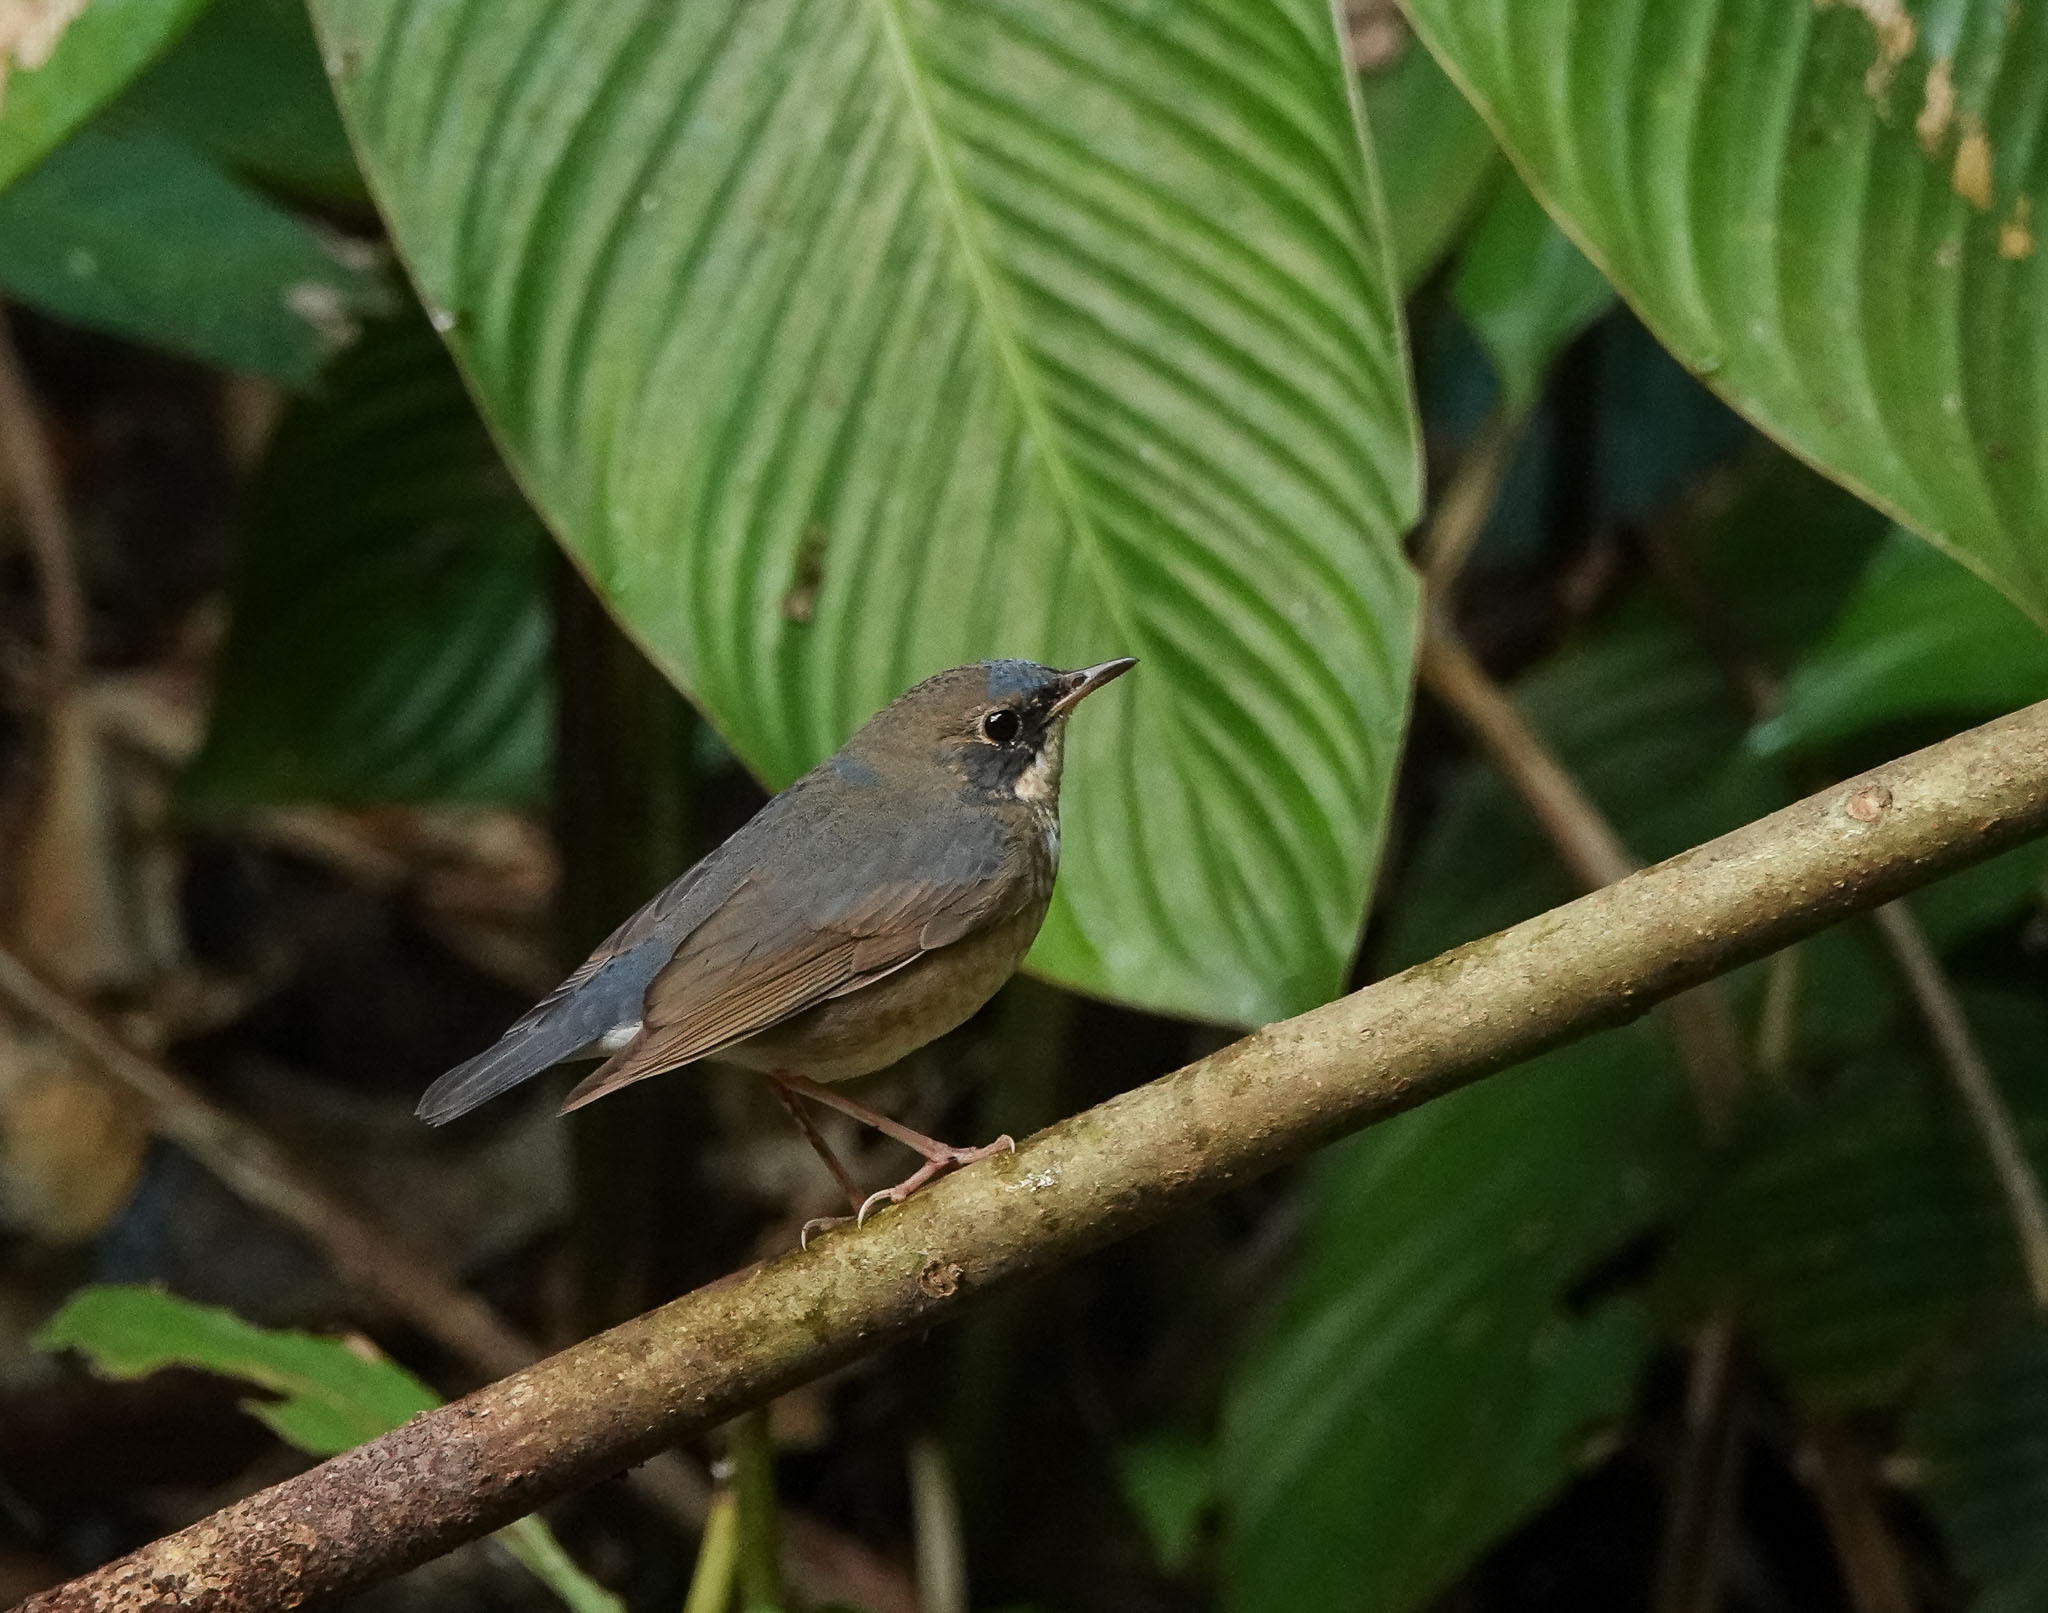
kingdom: Animalia
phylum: Chordata
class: Aves
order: Passeriformes
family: Muscicapidae
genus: Luscinia
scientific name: Luscinia cyane
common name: Siberian blue robin
